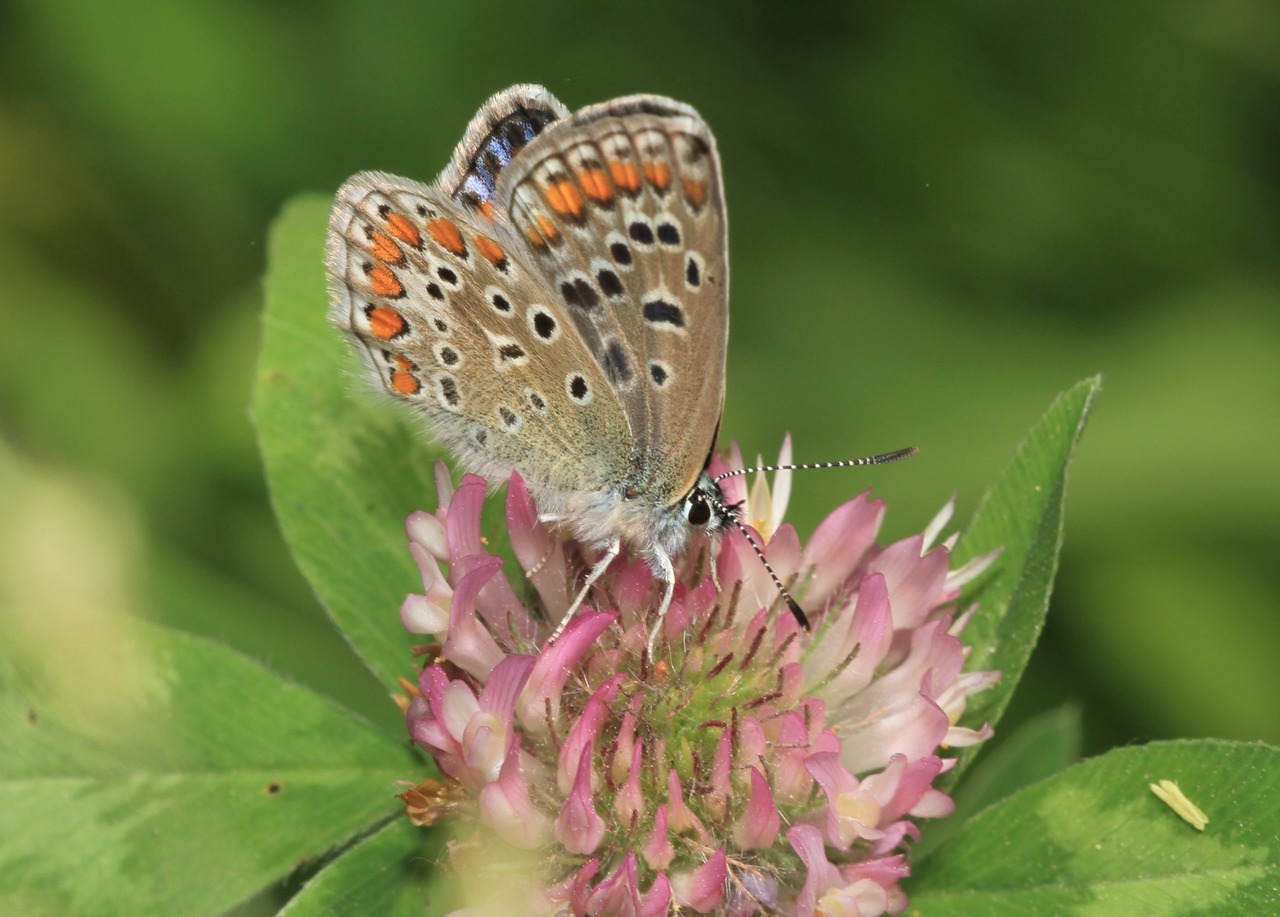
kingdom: Animalia
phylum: Arthropoda
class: Insecta
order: Lepidoptera
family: Lycaenidae
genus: Polyommatus
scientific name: Polyommatus icarus
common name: Common blue
